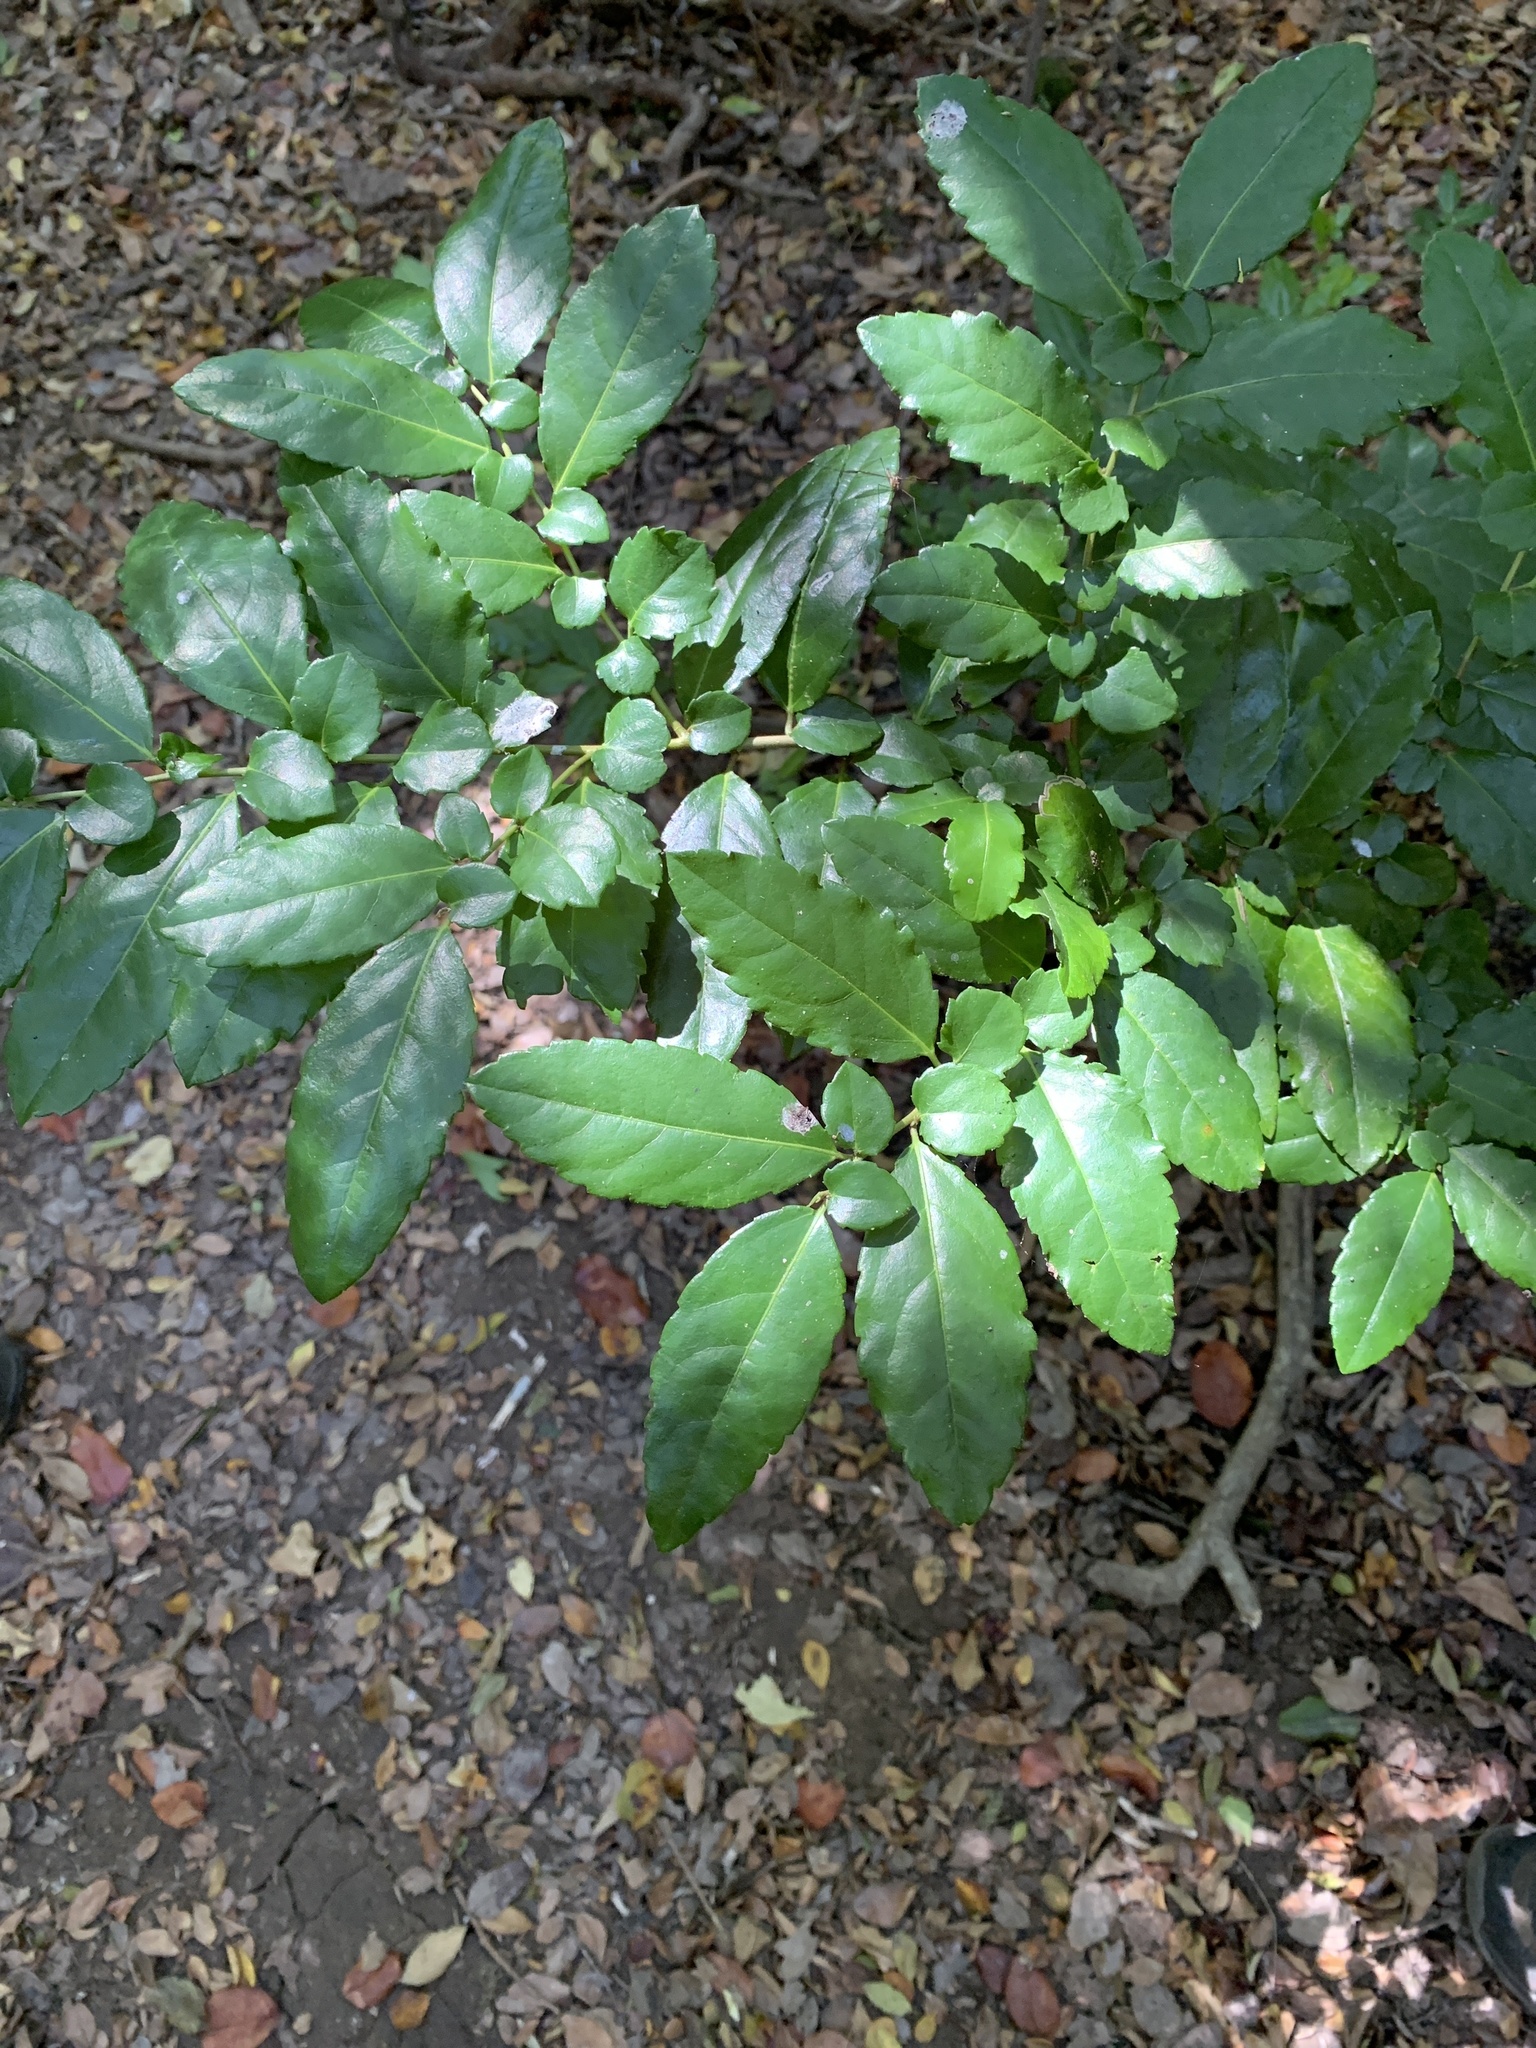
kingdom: Plantae
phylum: Tracheophyta
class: Magnoliopsida
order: Malpighiales
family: Salicaceae
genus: Azara
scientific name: Azara serrata
